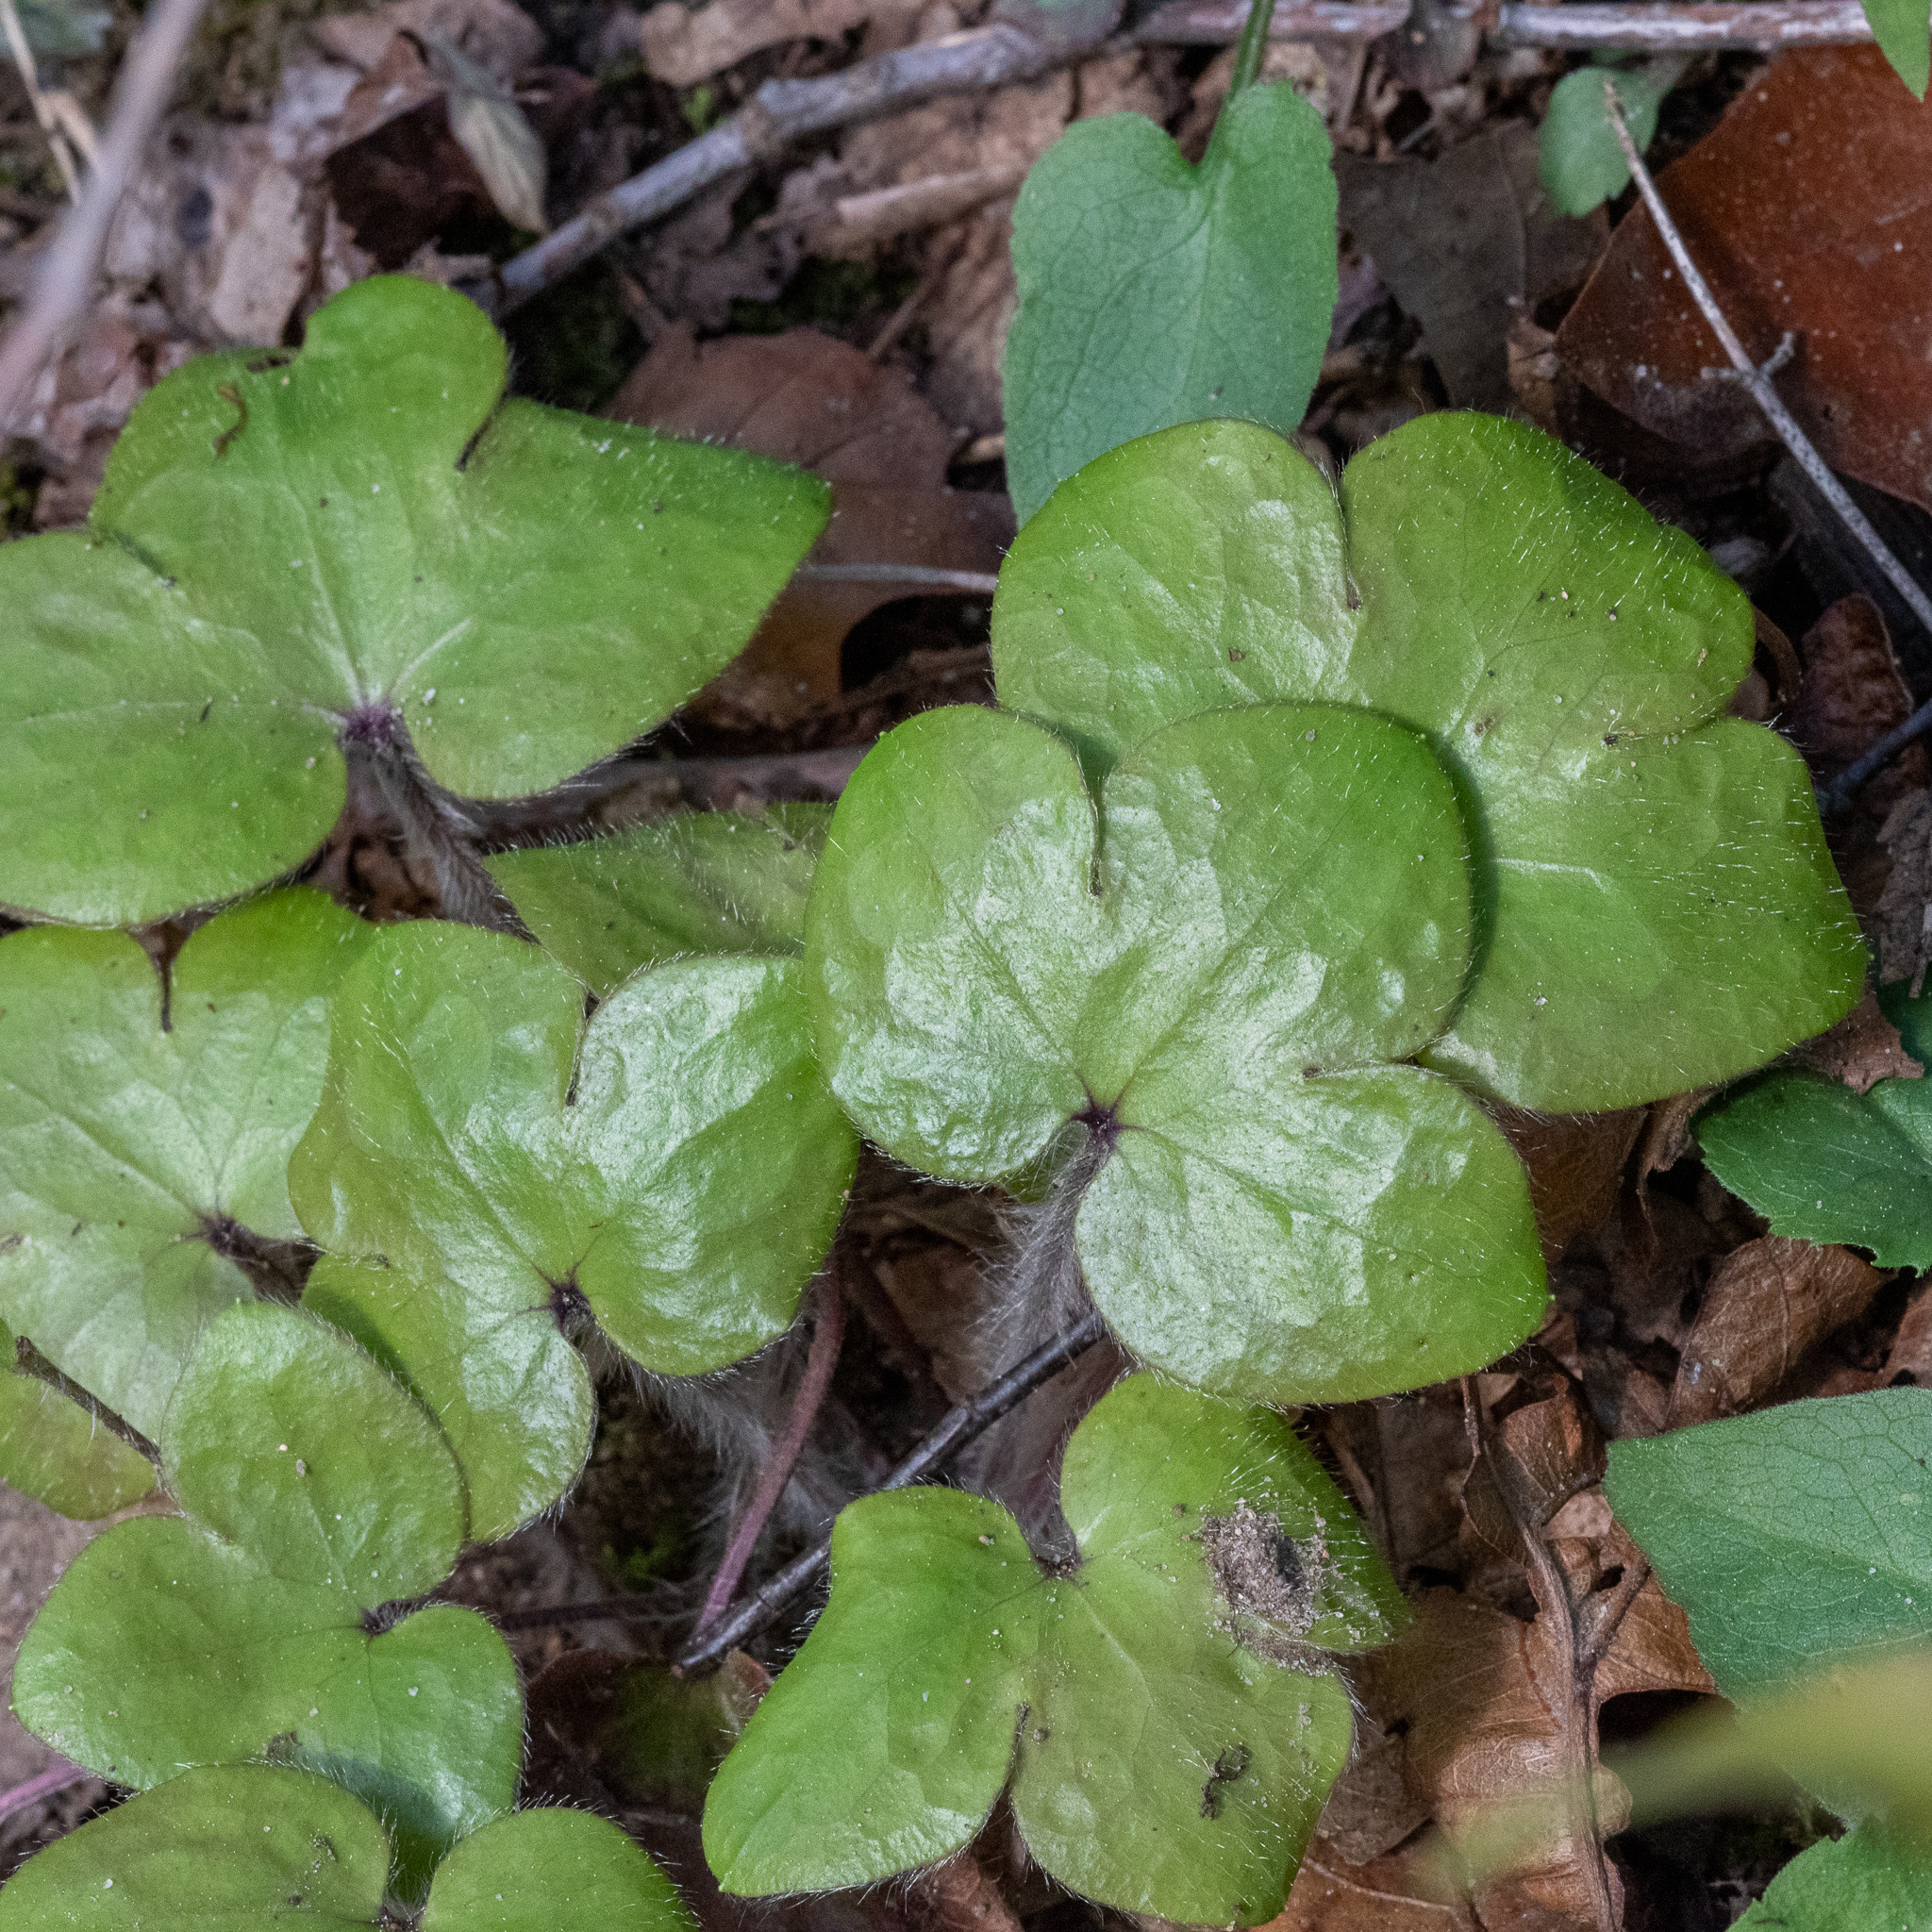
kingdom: Plantae
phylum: Tracheophyta
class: Magnoliopsida
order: Ranunculales
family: Ranunculaceae
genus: Hepatica
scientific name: Hepatica americana
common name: American hepatica
